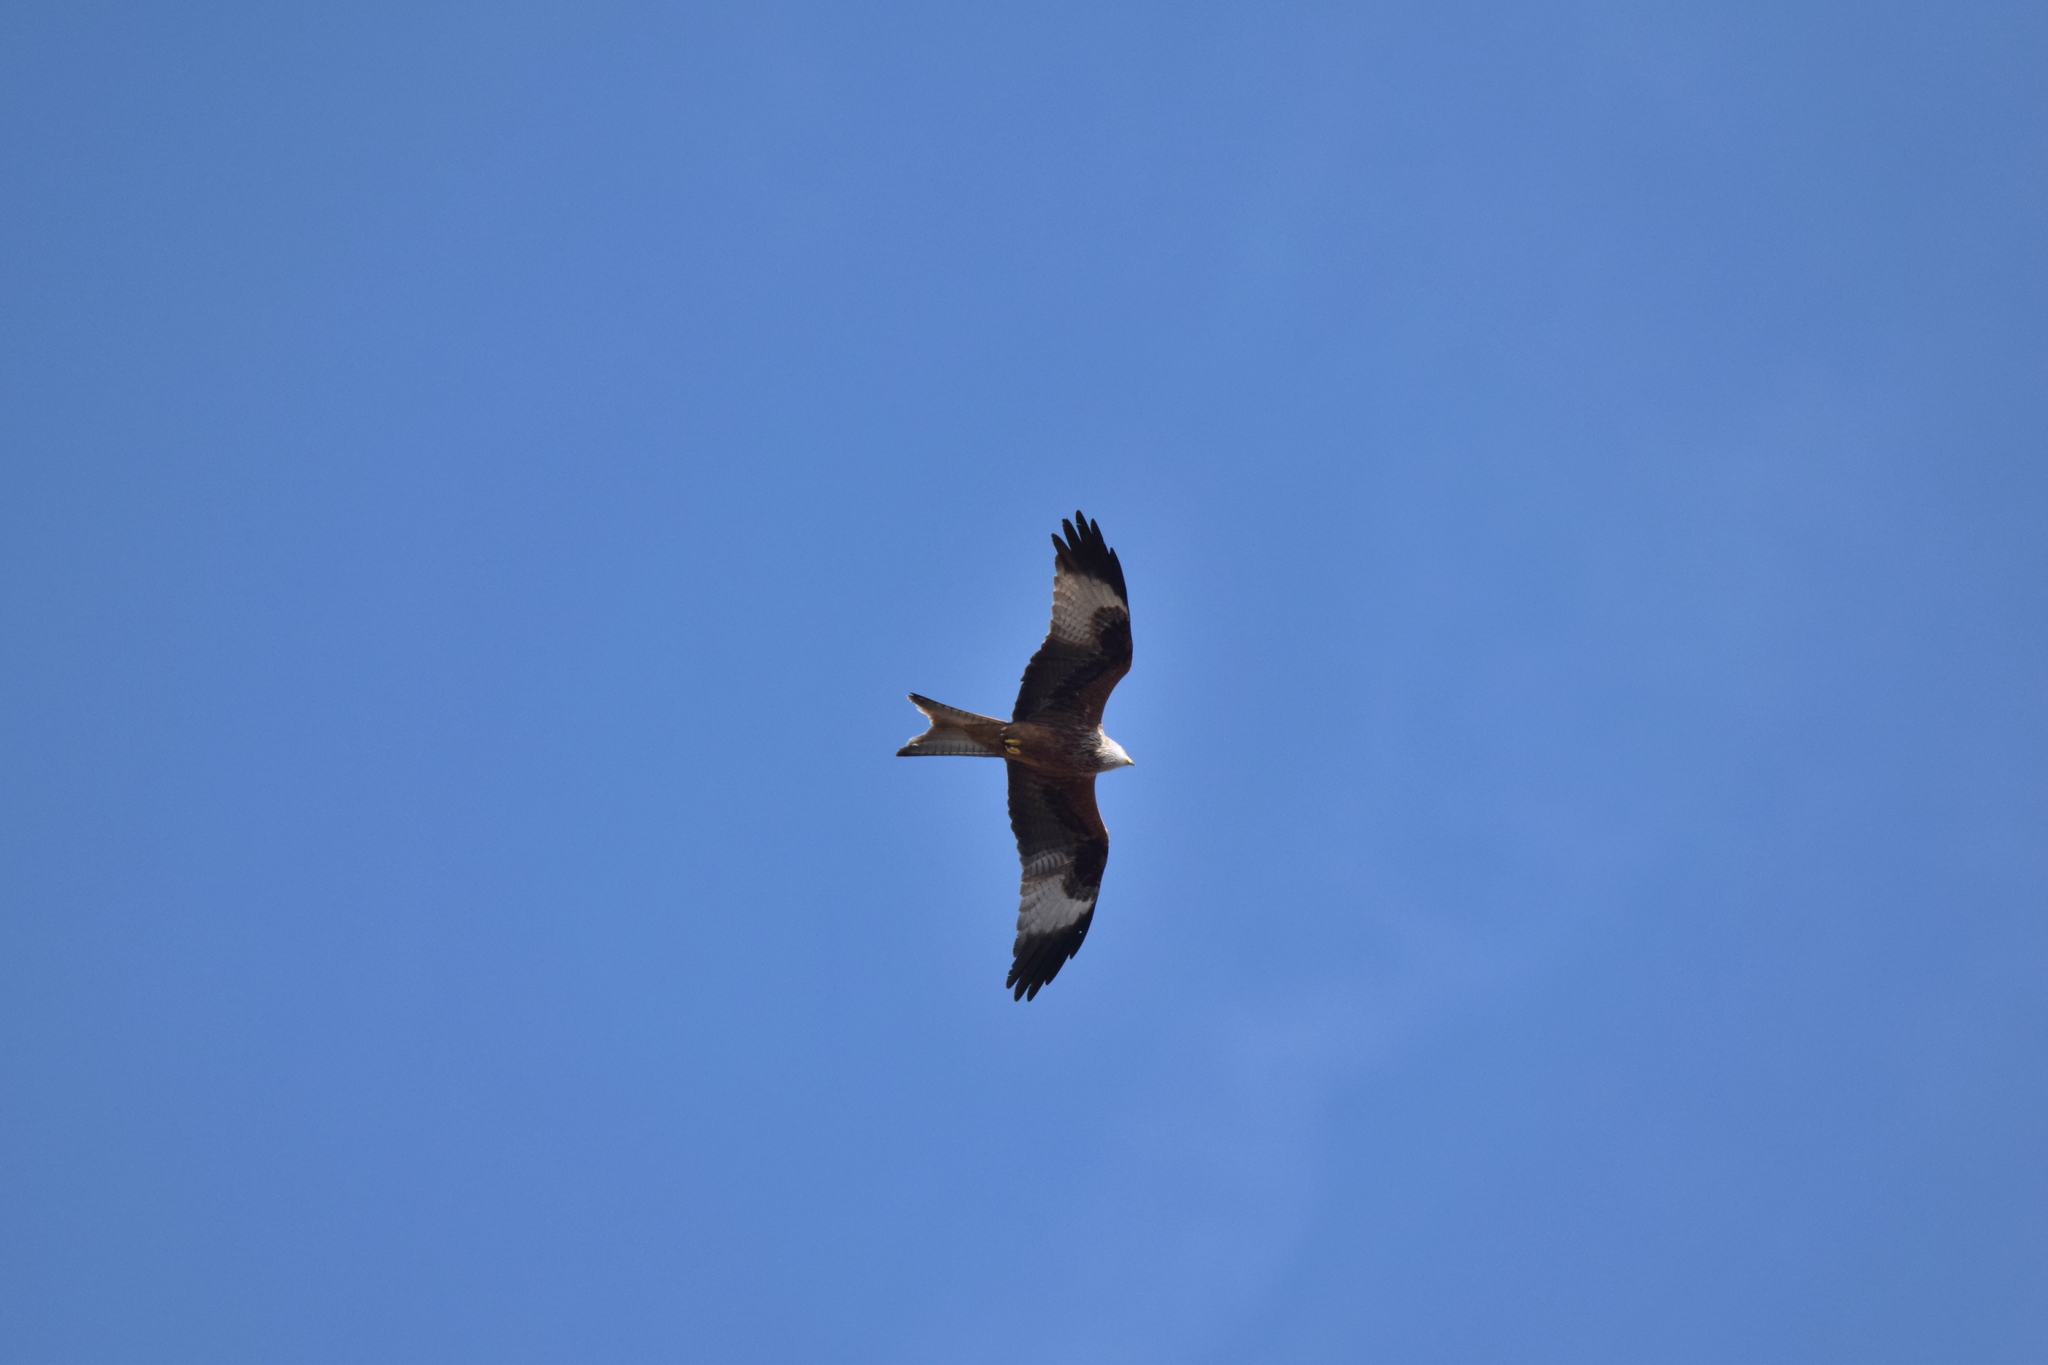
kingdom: Animalia
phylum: Chordata
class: Aves
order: Accipitriformes
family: Accipitridae
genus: Milvus
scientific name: Milvus milvus
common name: Red kite
